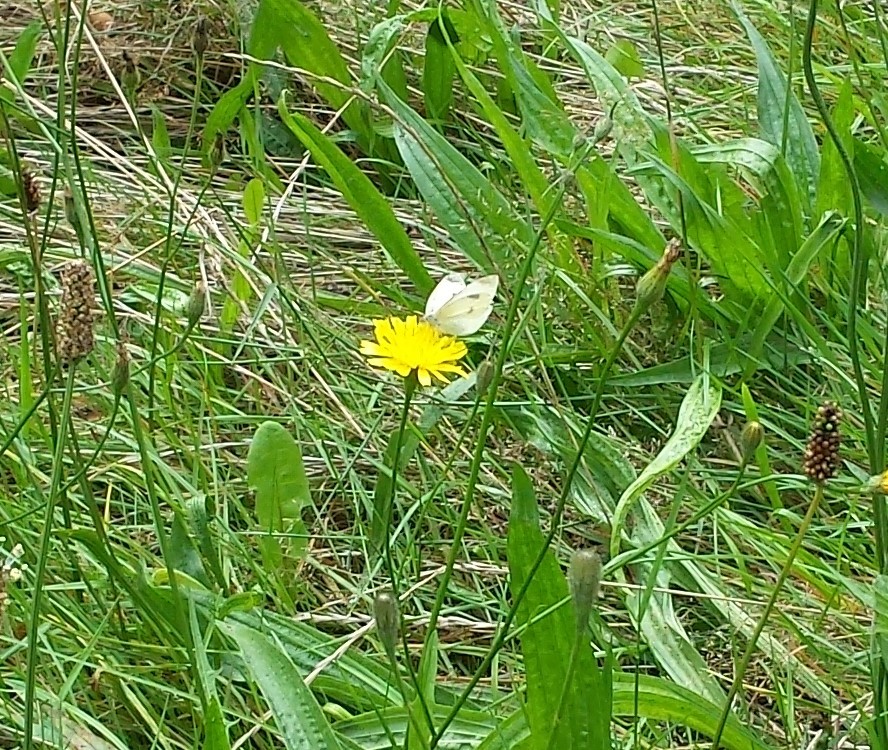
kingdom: Animalia
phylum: Arthropoda
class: Insecta
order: Lepidoptera
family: Pieridae
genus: Pieris
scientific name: Pieris rapae
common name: Small white
